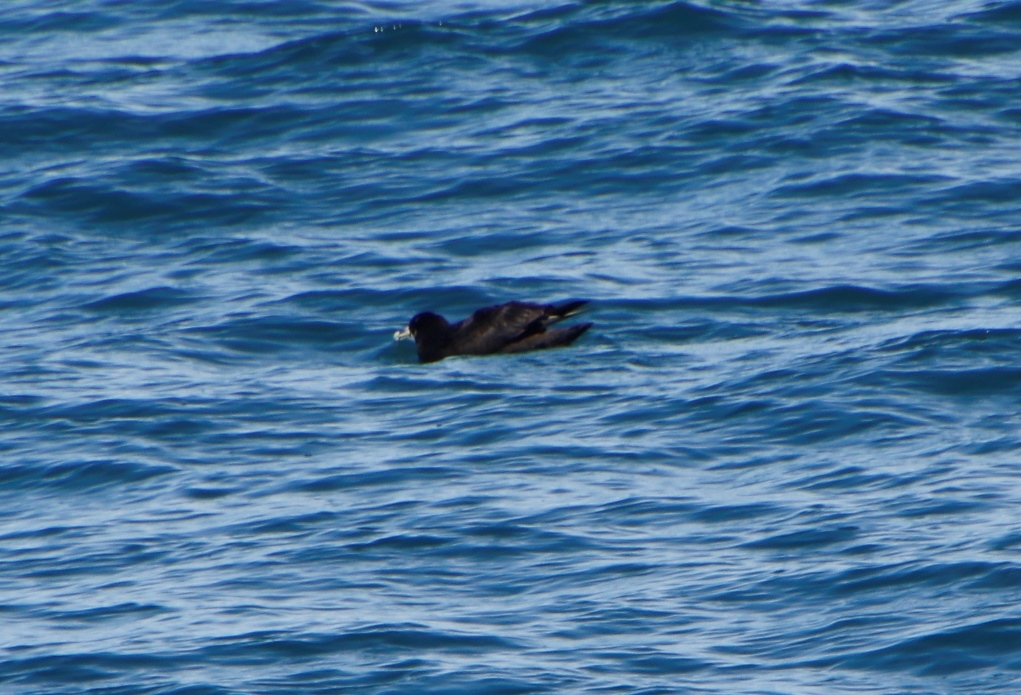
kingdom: Animalia
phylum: Chordata
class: Aves
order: Procellariiformes
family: Procellariidae
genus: Procellaria
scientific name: Procellaria aequinoctialis
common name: White-chinned petrel
